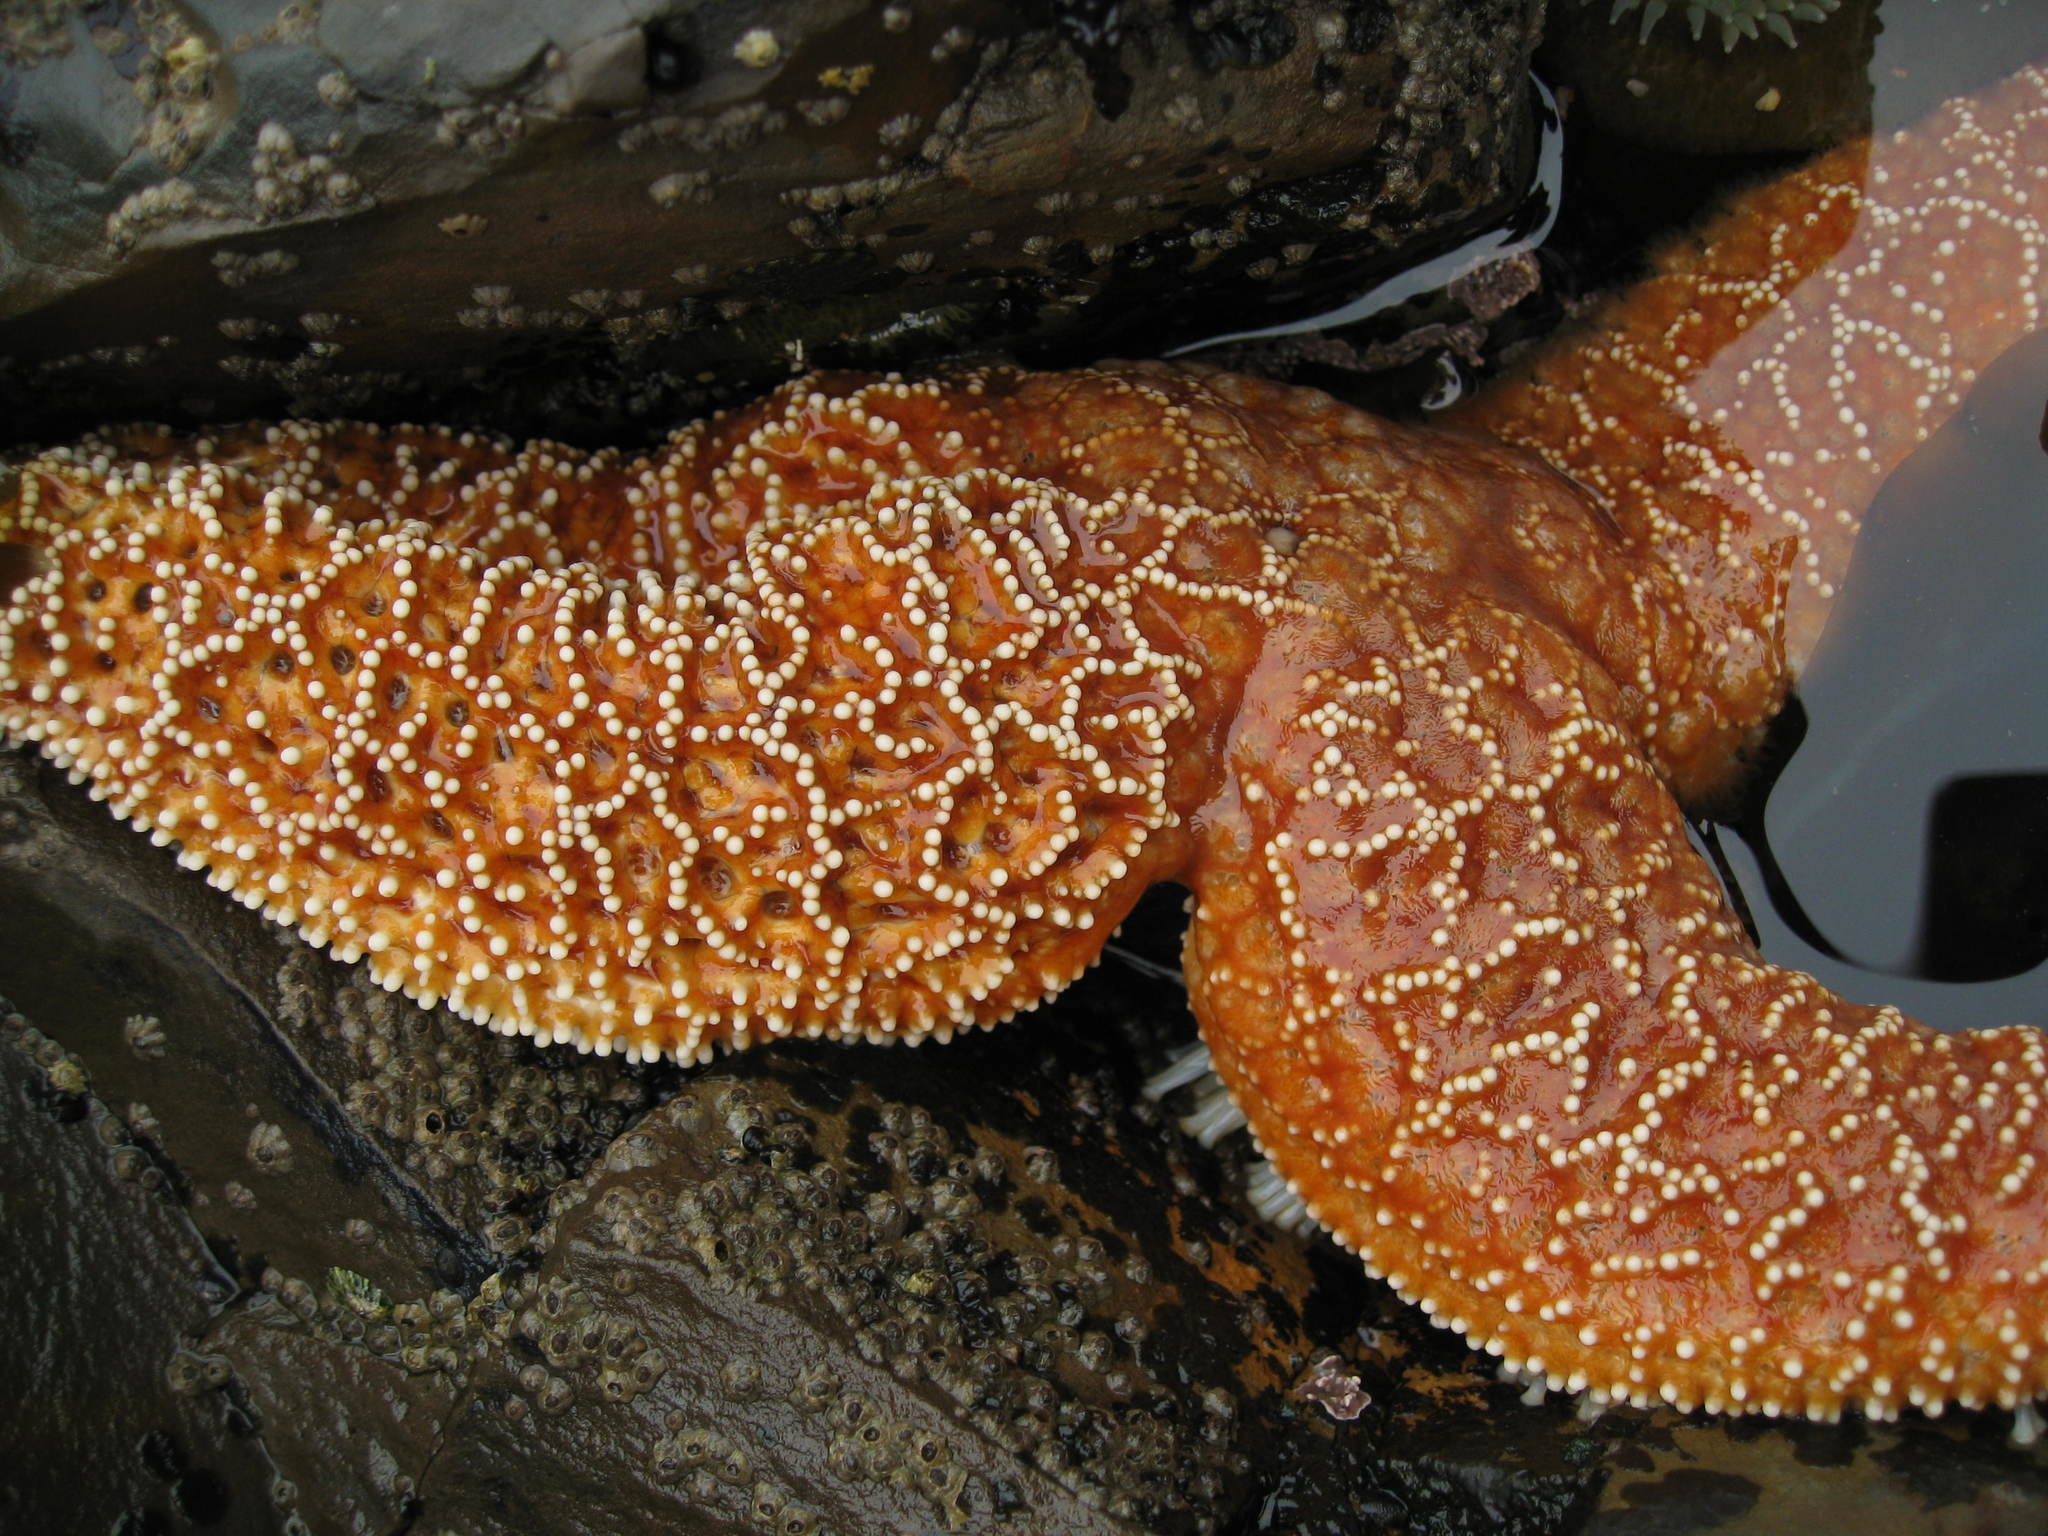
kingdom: Animalia
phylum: Echinodermata
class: Asteroidea
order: Forcipulatida
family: Asteriidae
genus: Pisaster
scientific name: Pisaster ochraceus
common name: Ochre stars
